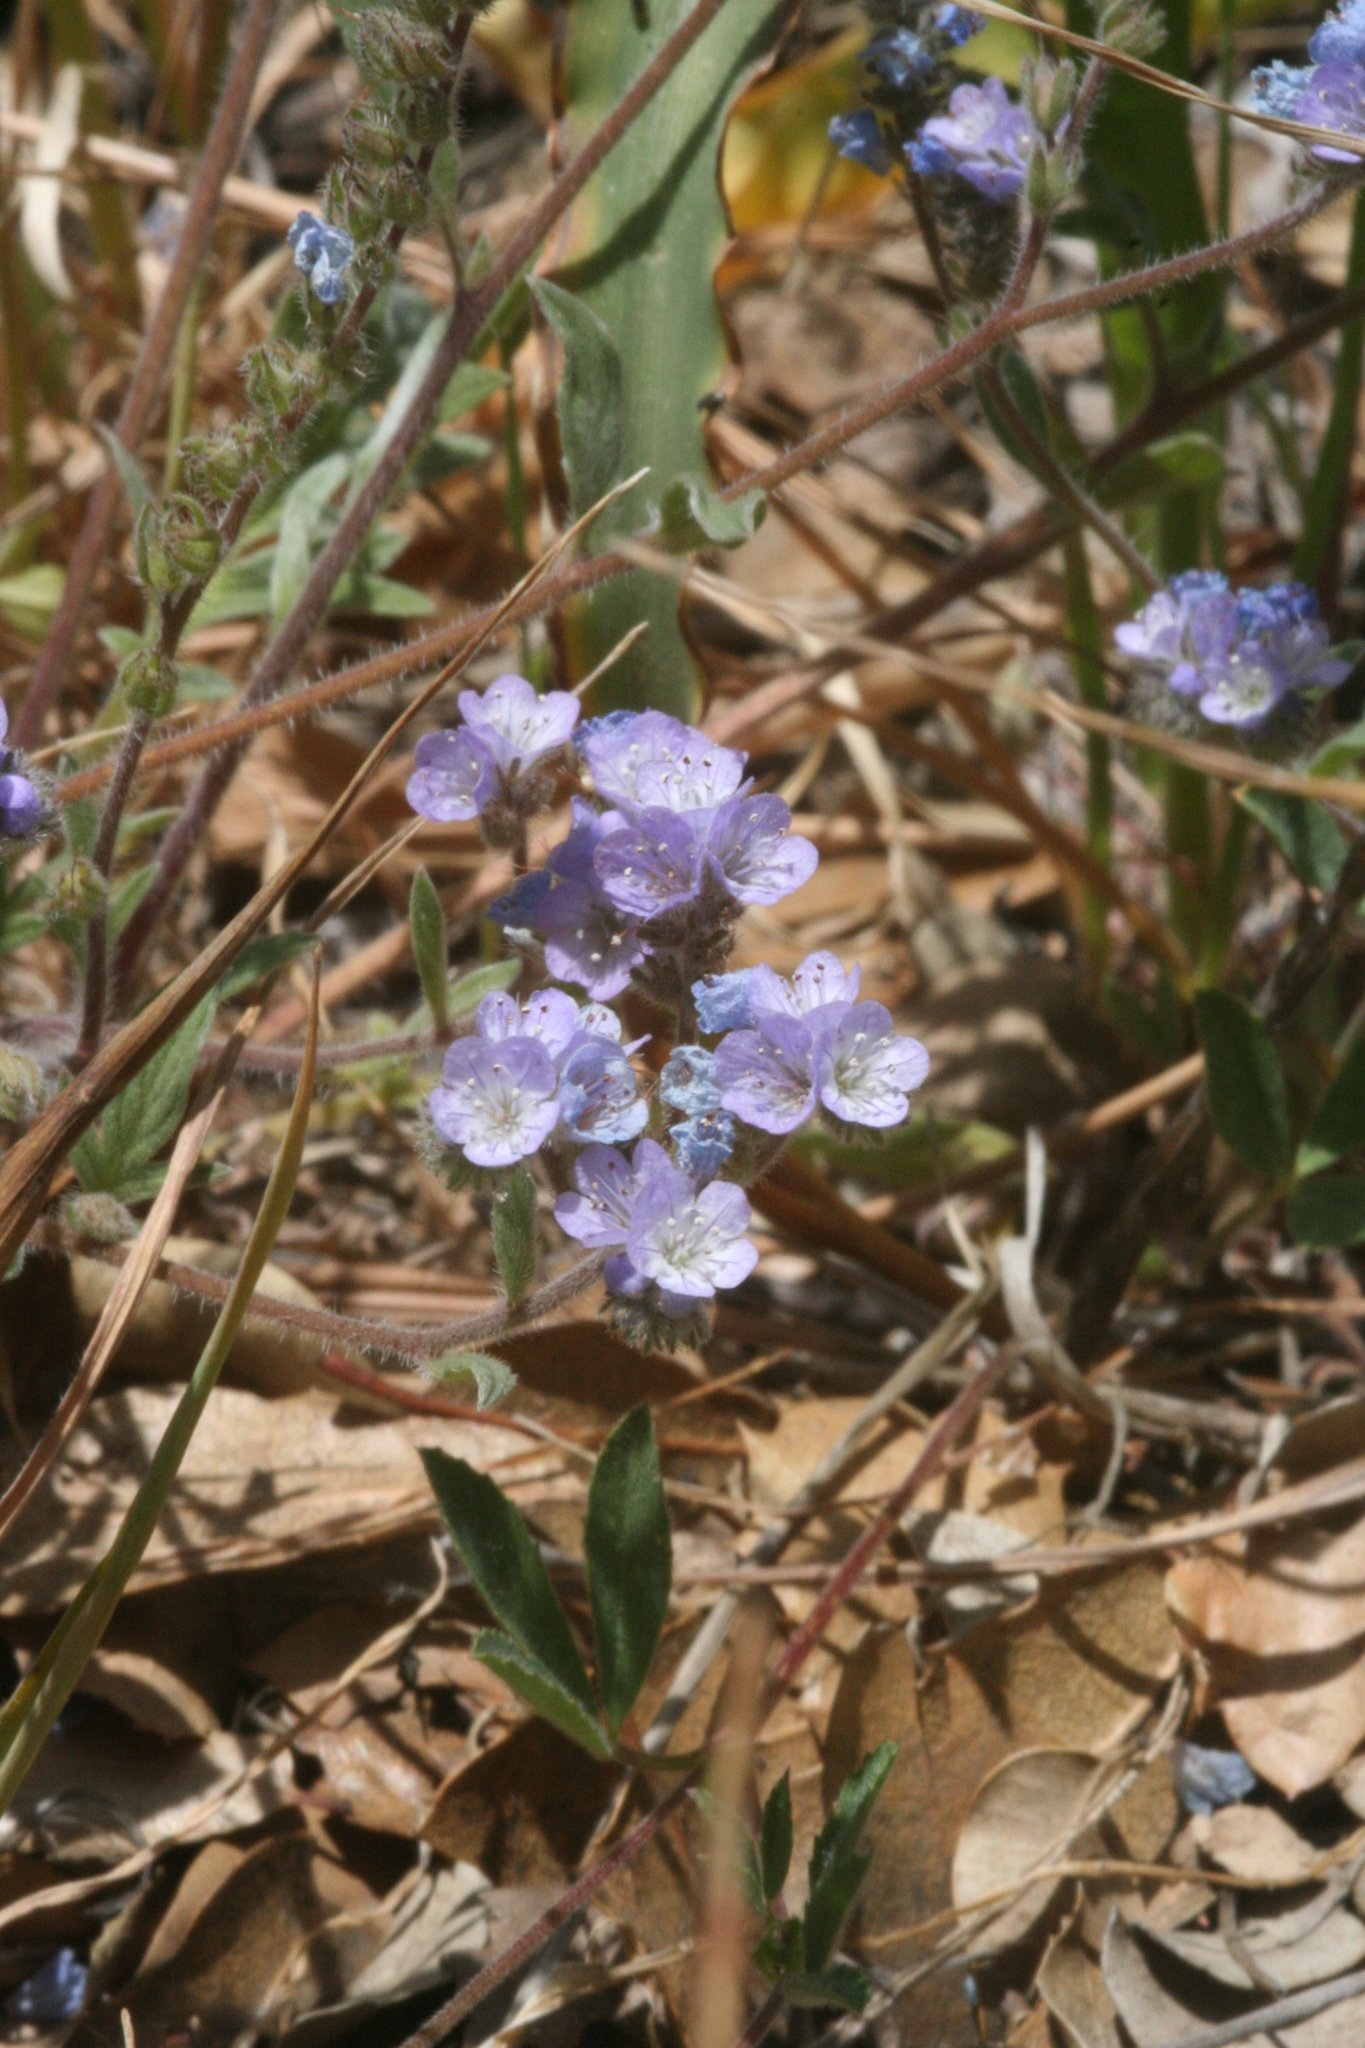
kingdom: Plantae
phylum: Tracheophyta
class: Magnoliopsida
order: Boraginales
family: Hydrophyllaceae
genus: Phacelia
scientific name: Phacelia breweri
